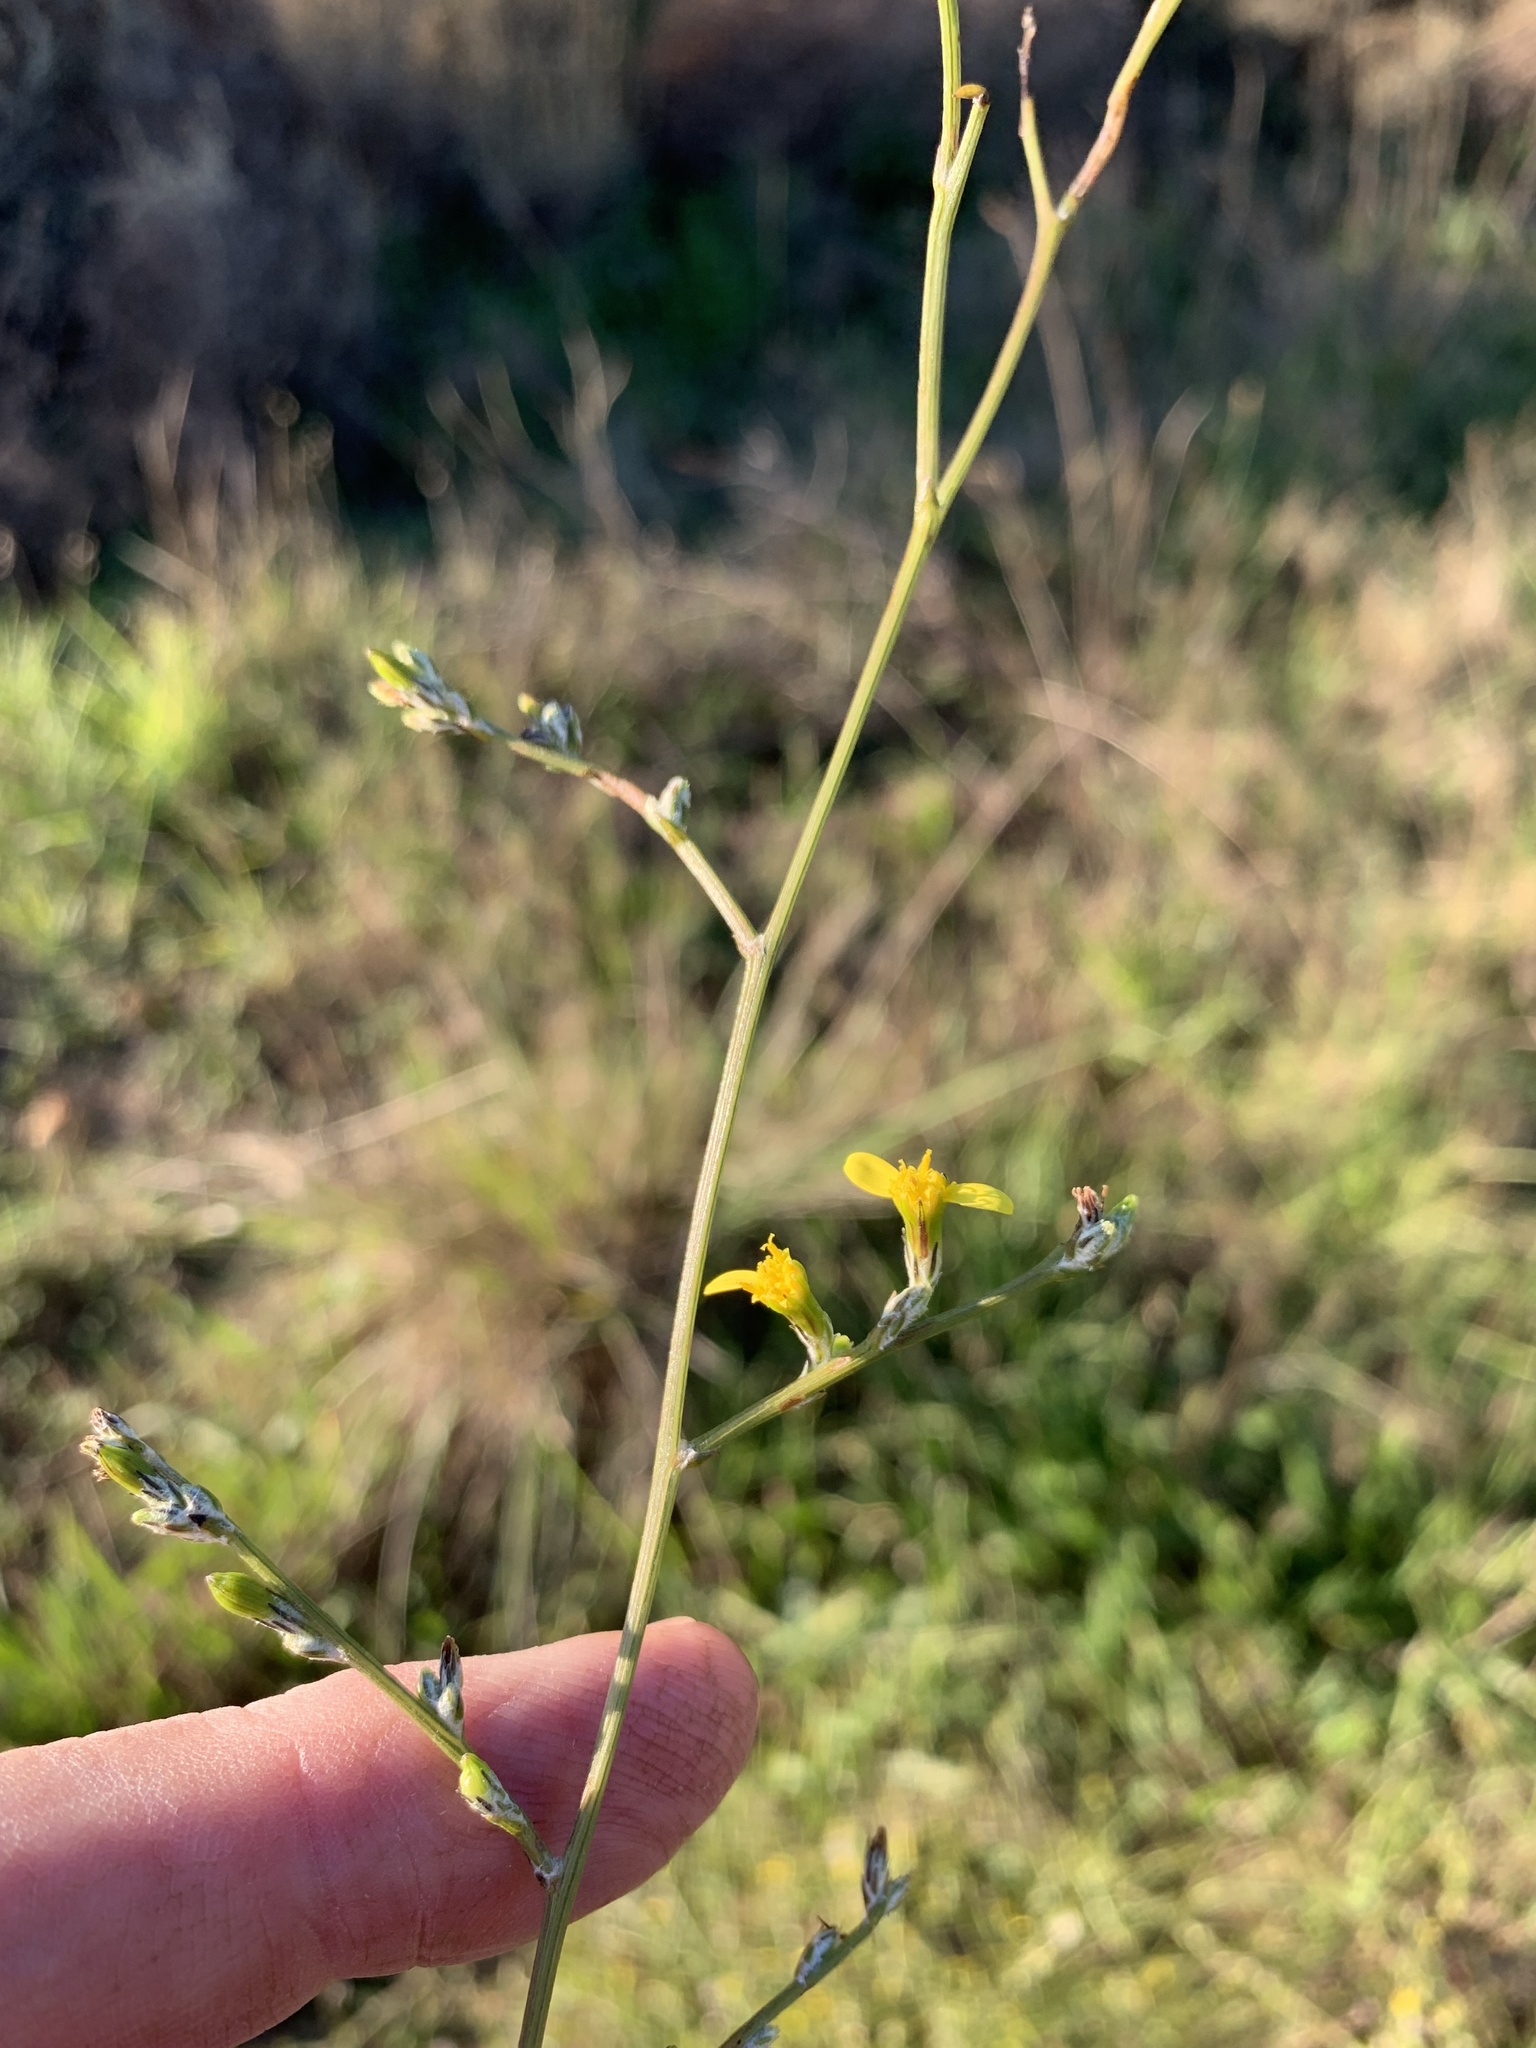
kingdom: Plantae
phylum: Tracheophyta
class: Magnoliopsida
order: Asterales
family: Asteraceae
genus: Senecio
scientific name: Senecio pubigerus
